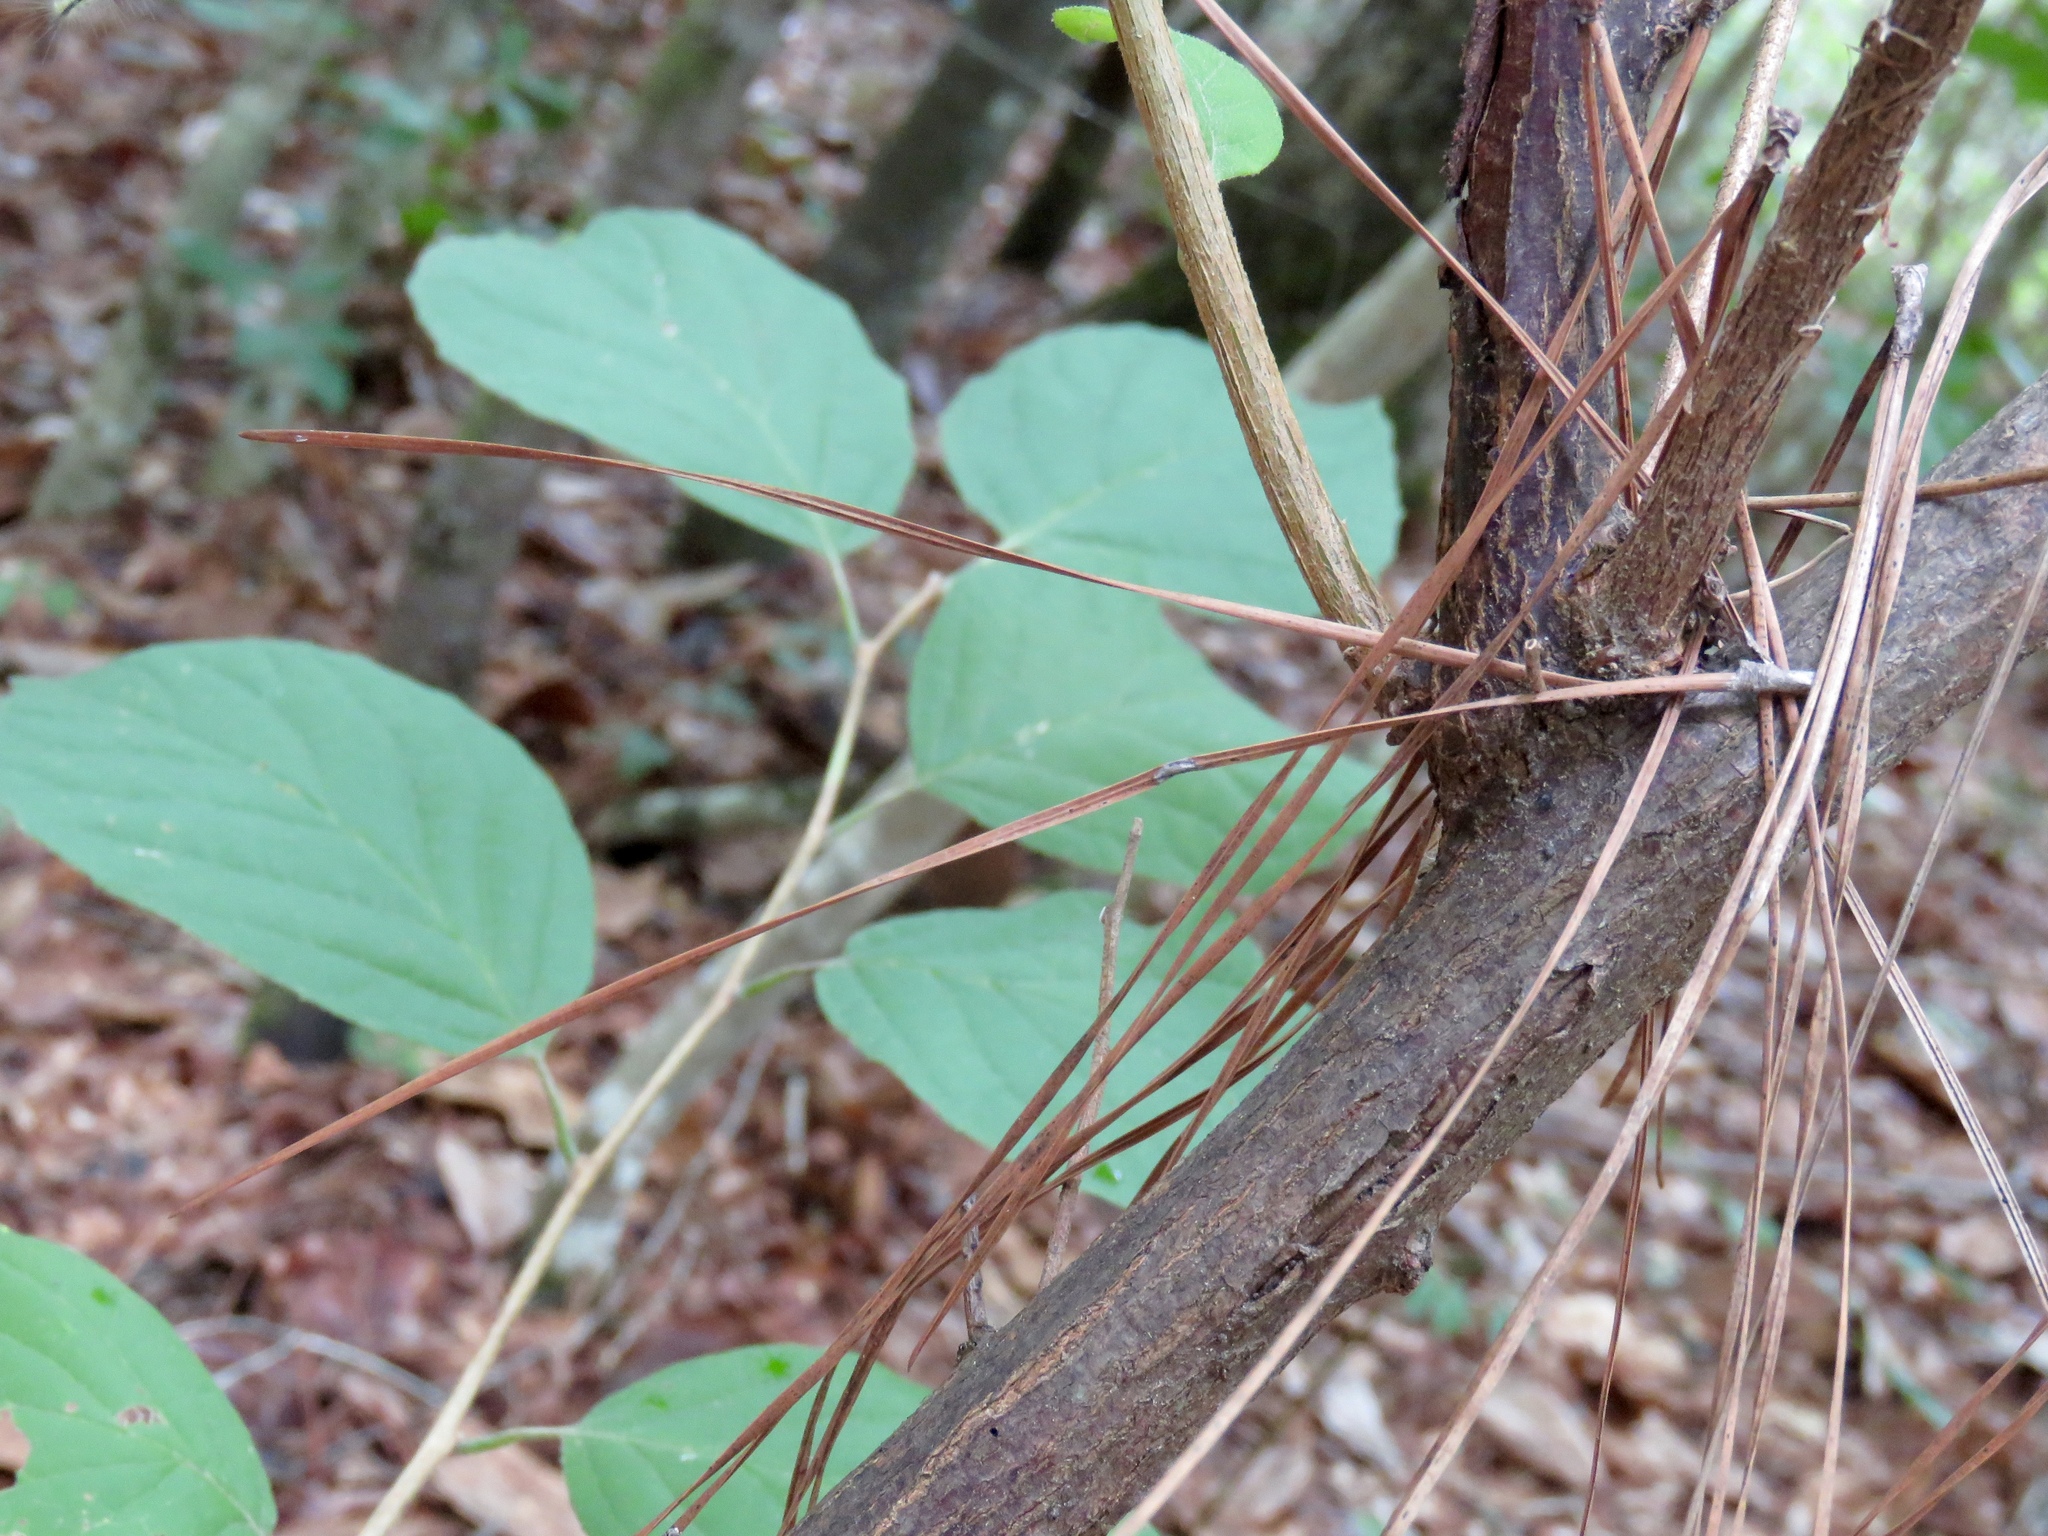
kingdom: Plantae
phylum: Tracheophyta
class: Magnoliopsida
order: Ericales
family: Styracaceae
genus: Halesia
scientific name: Halesia diptera
